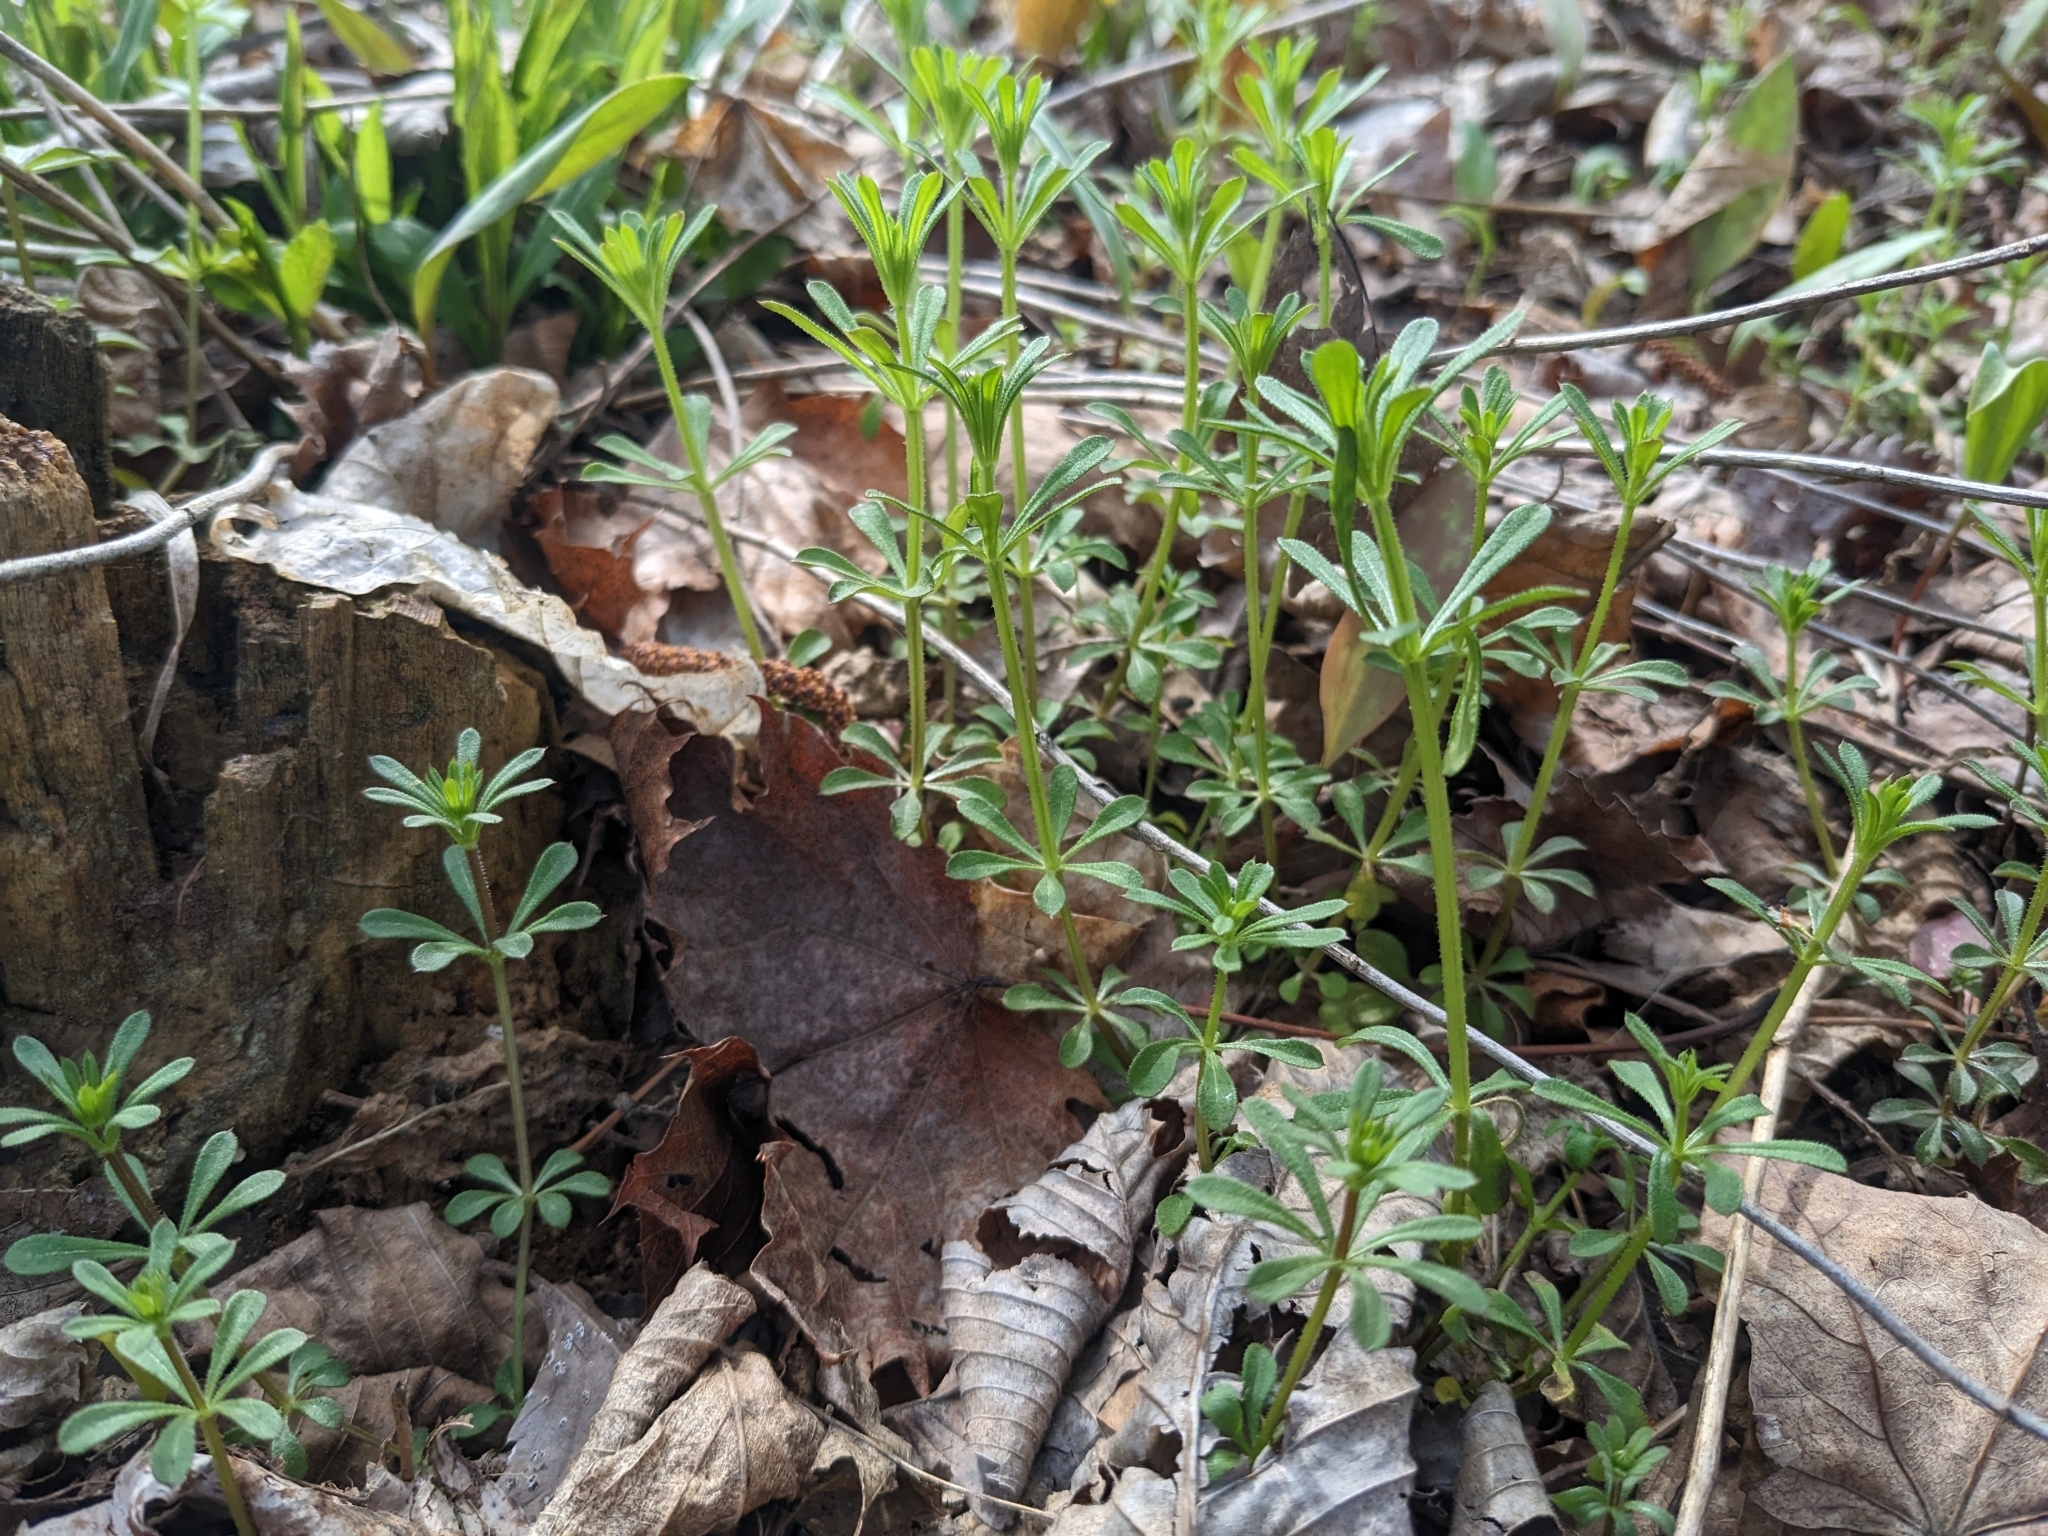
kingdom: Plantae
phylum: Tracheophyta
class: Magnoliopsida
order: Gentianales
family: Rubiaceae
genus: Galium
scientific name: Galium aparine
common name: Cleavers
